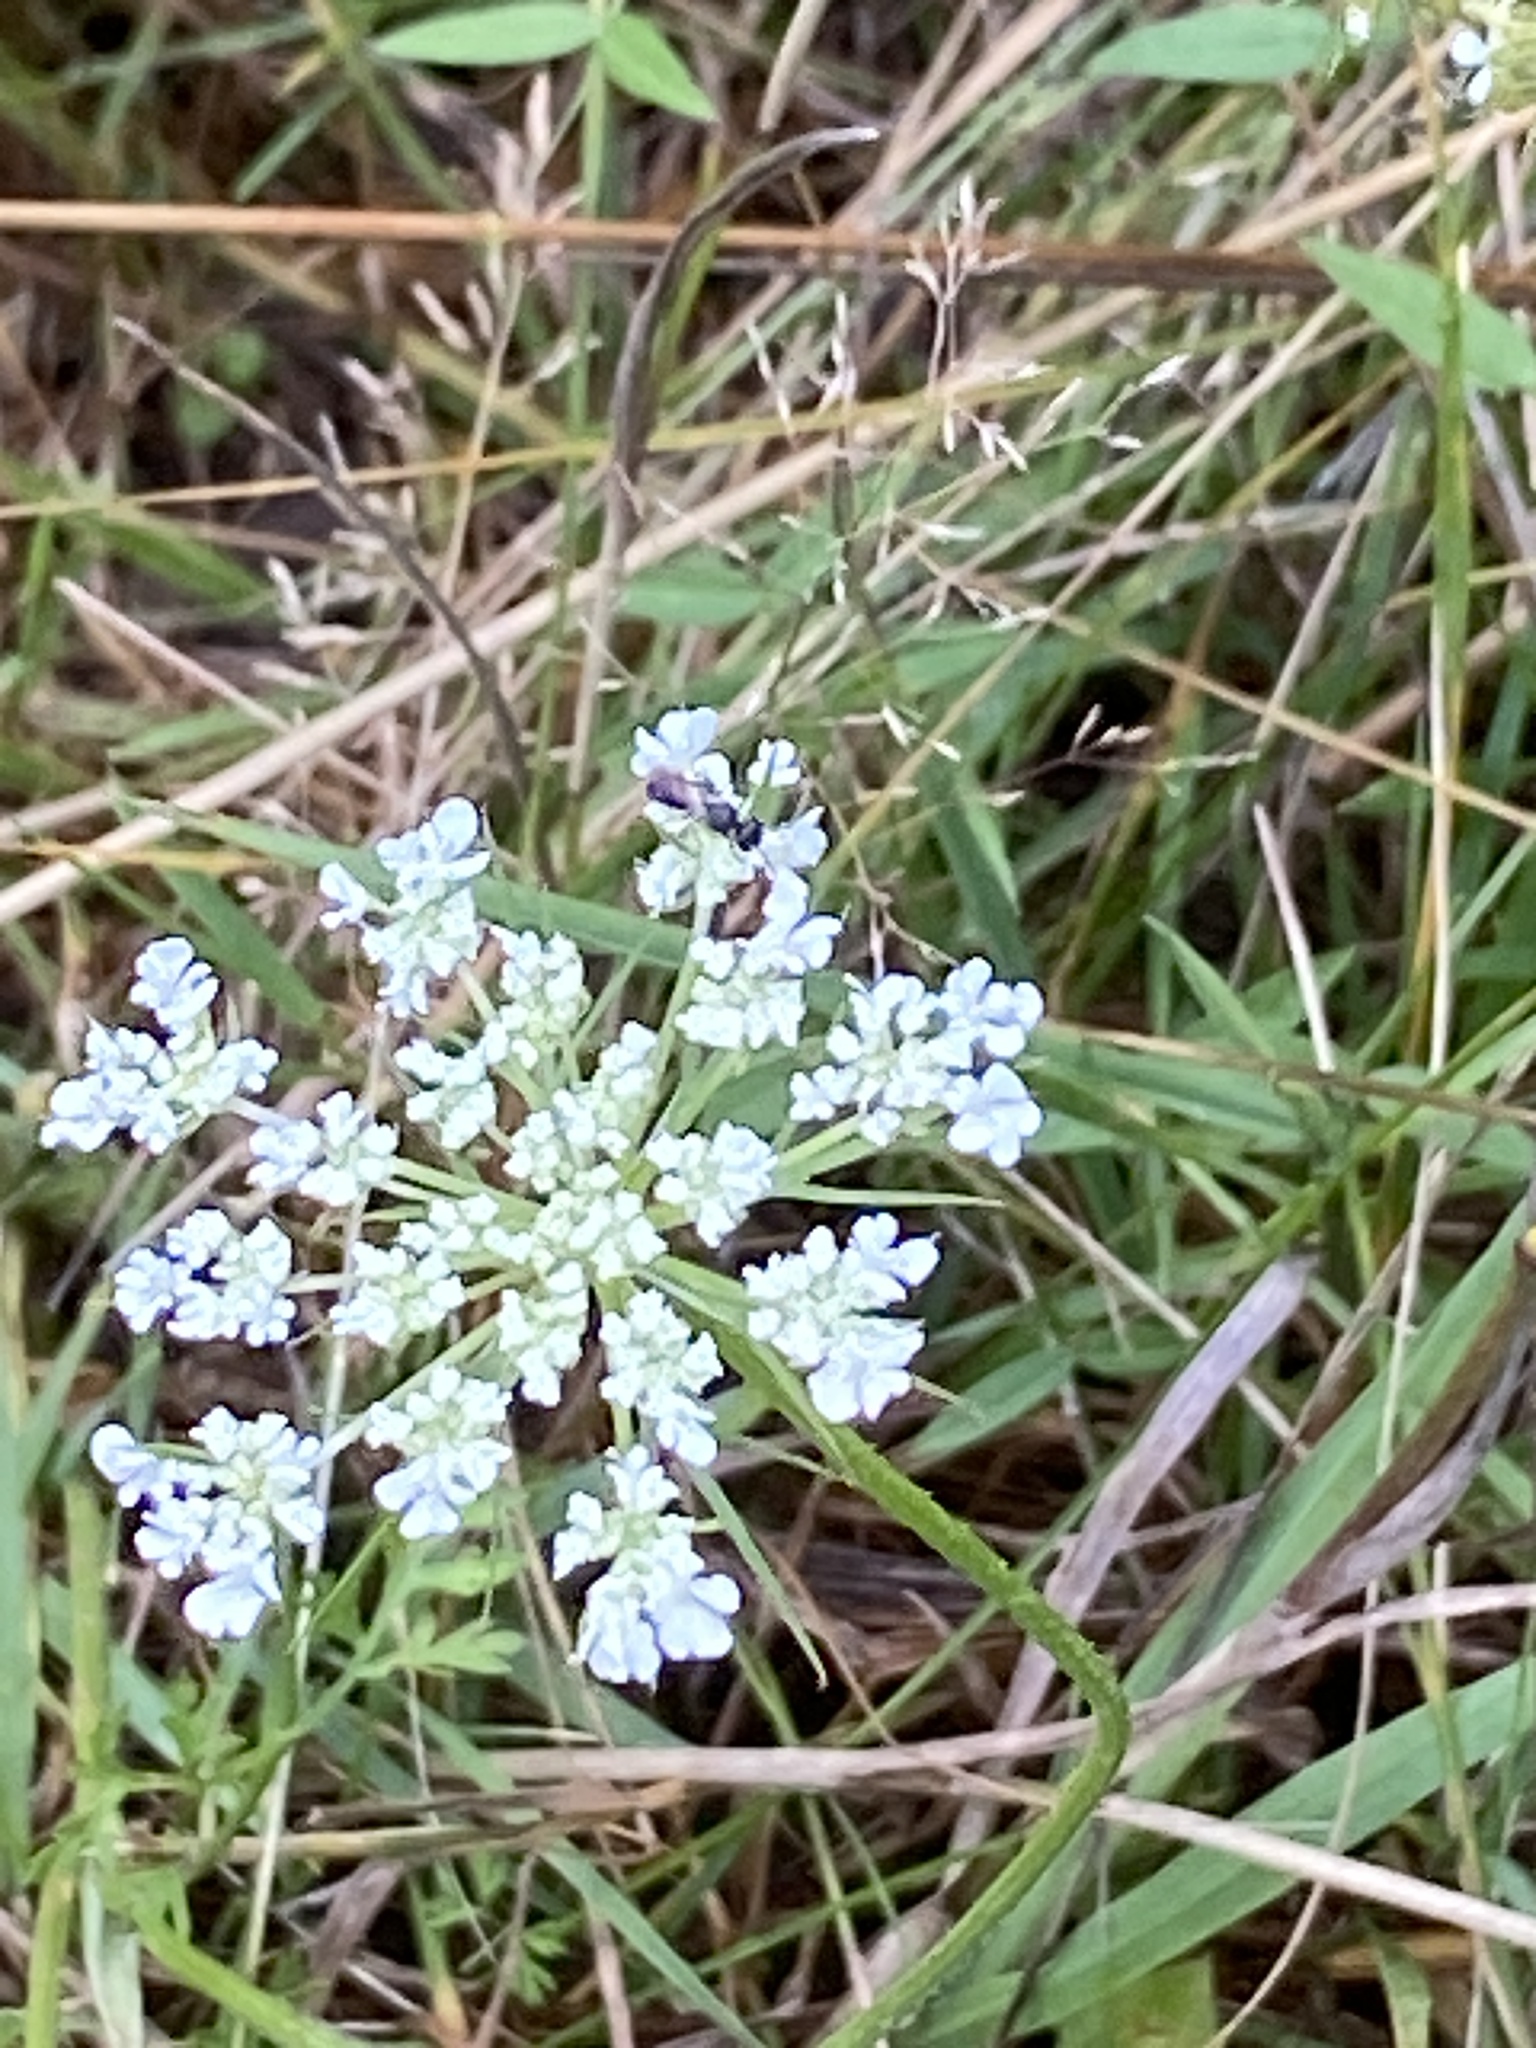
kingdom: Plantae
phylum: Tracheophyta
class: Magnoliopsida
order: Apiales
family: Apiaceae
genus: Daucus
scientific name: Daucus carota
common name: Wild carrot
